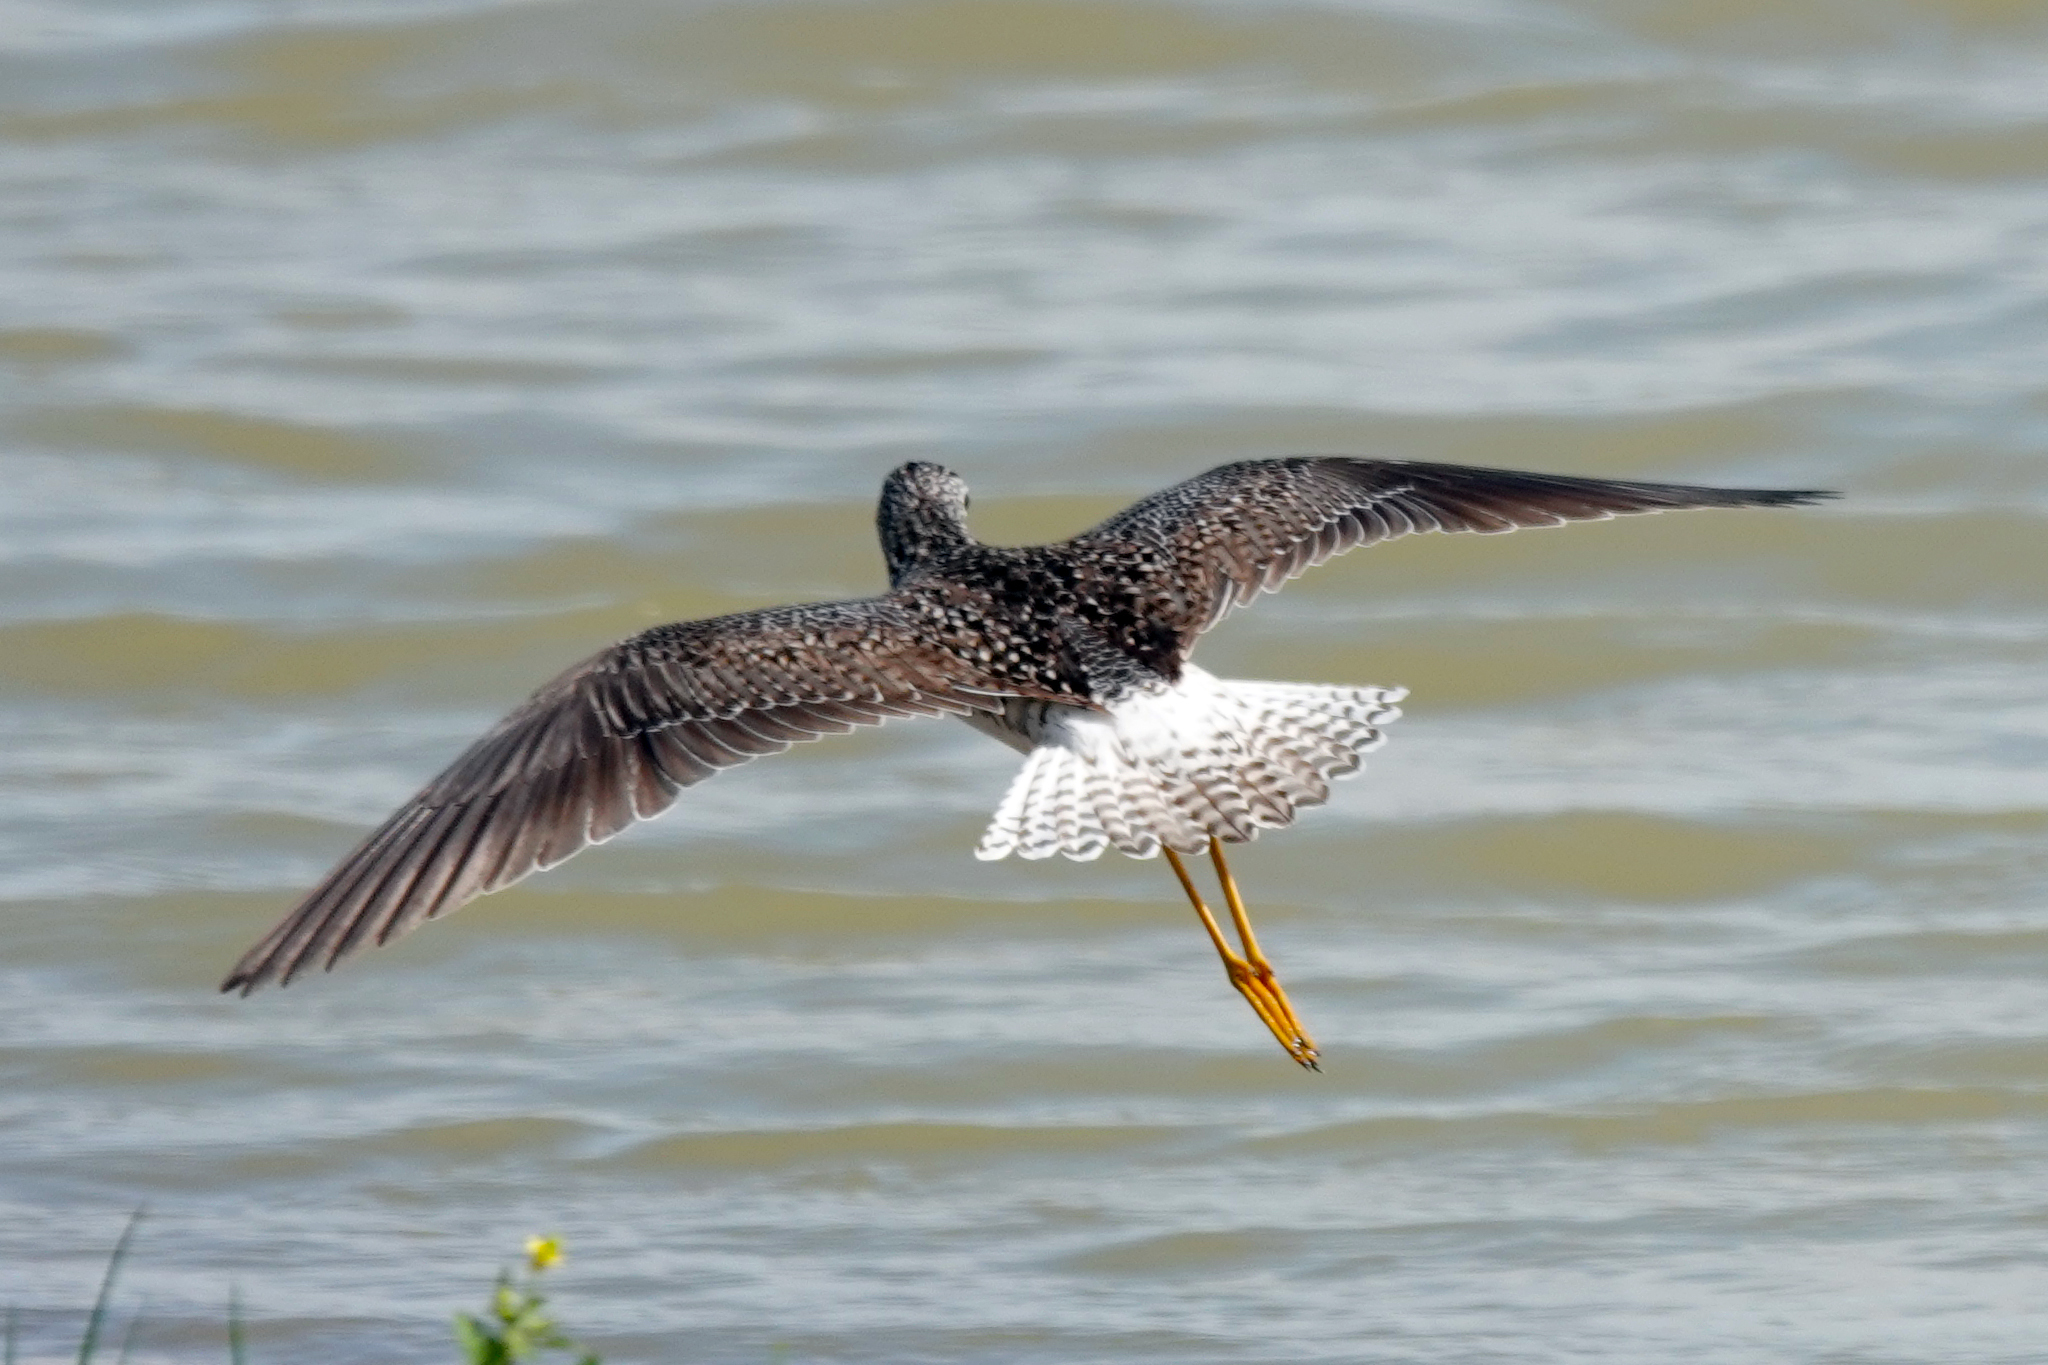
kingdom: Animalia
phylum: Chordata
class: Aves
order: Charadriiformes
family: Scolopacidae
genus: Tringa
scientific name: Tringa flavipes
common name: Lesser yellowlegs
